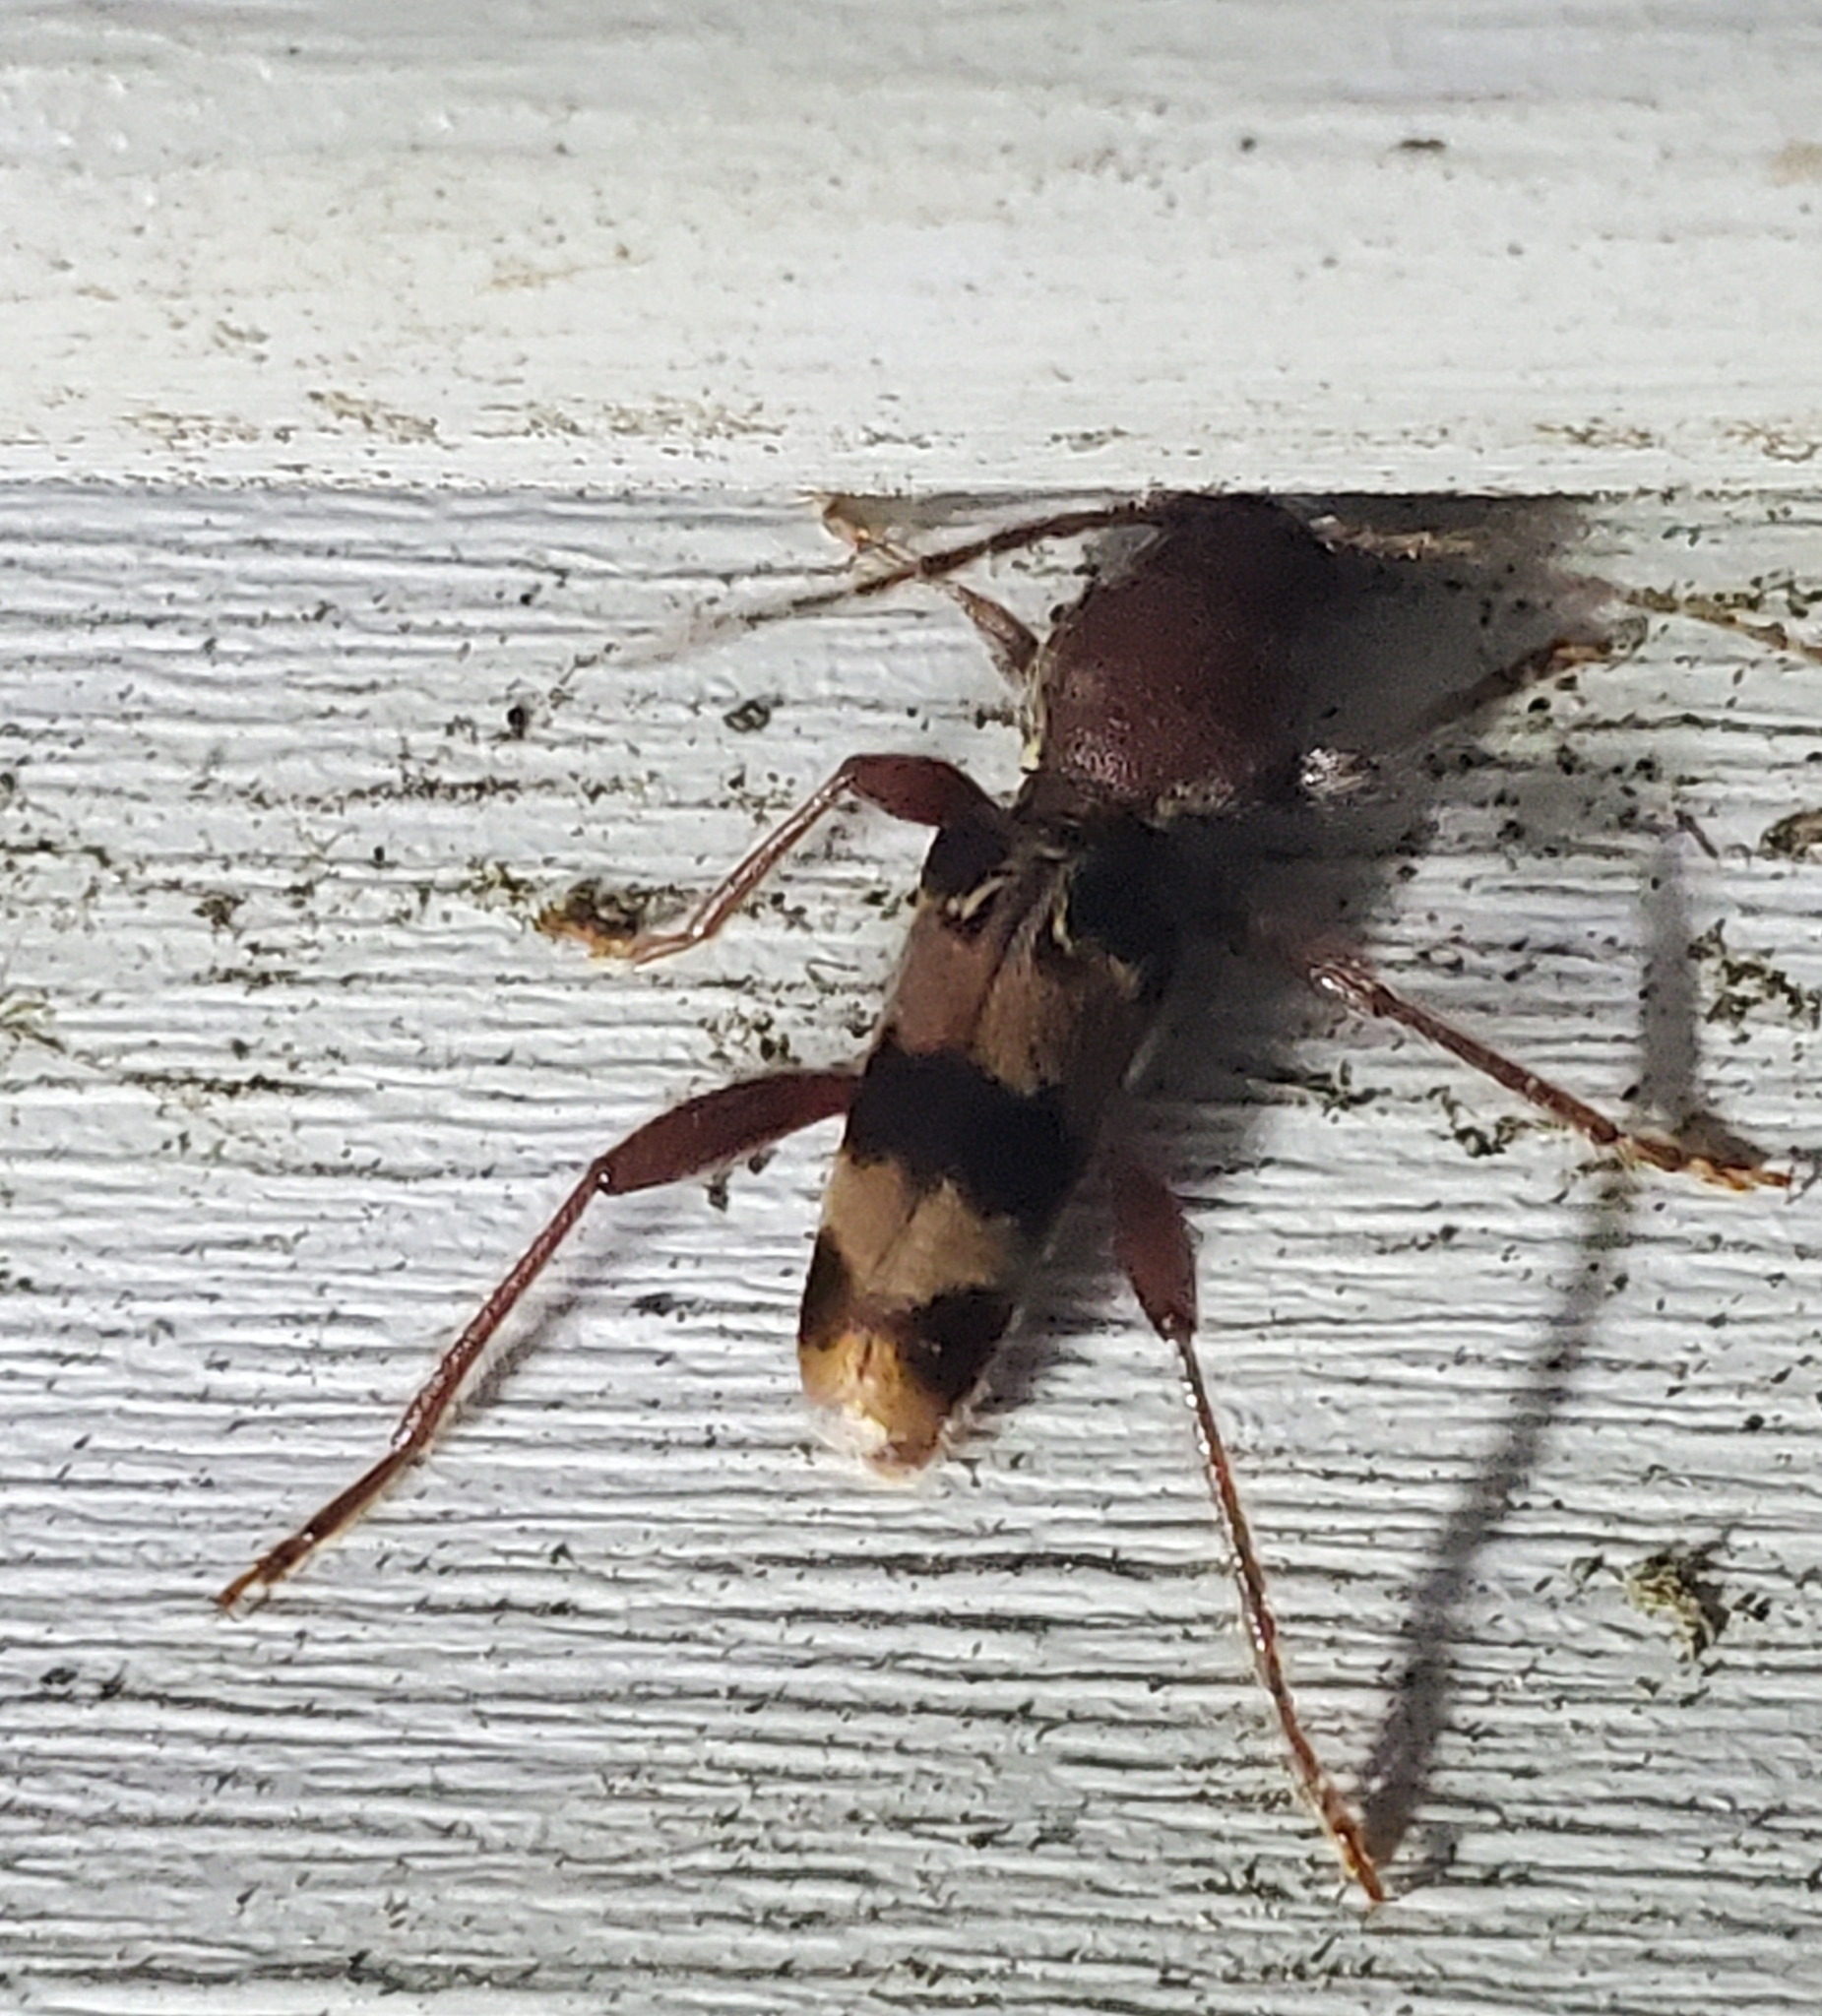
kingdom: Animalia
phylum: Arthropoda
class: Insecta
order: Coleoptera
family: Cerambycidae
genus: Xylotrechus
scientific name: Xylotrechus colonus
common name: Long-horned beetle
